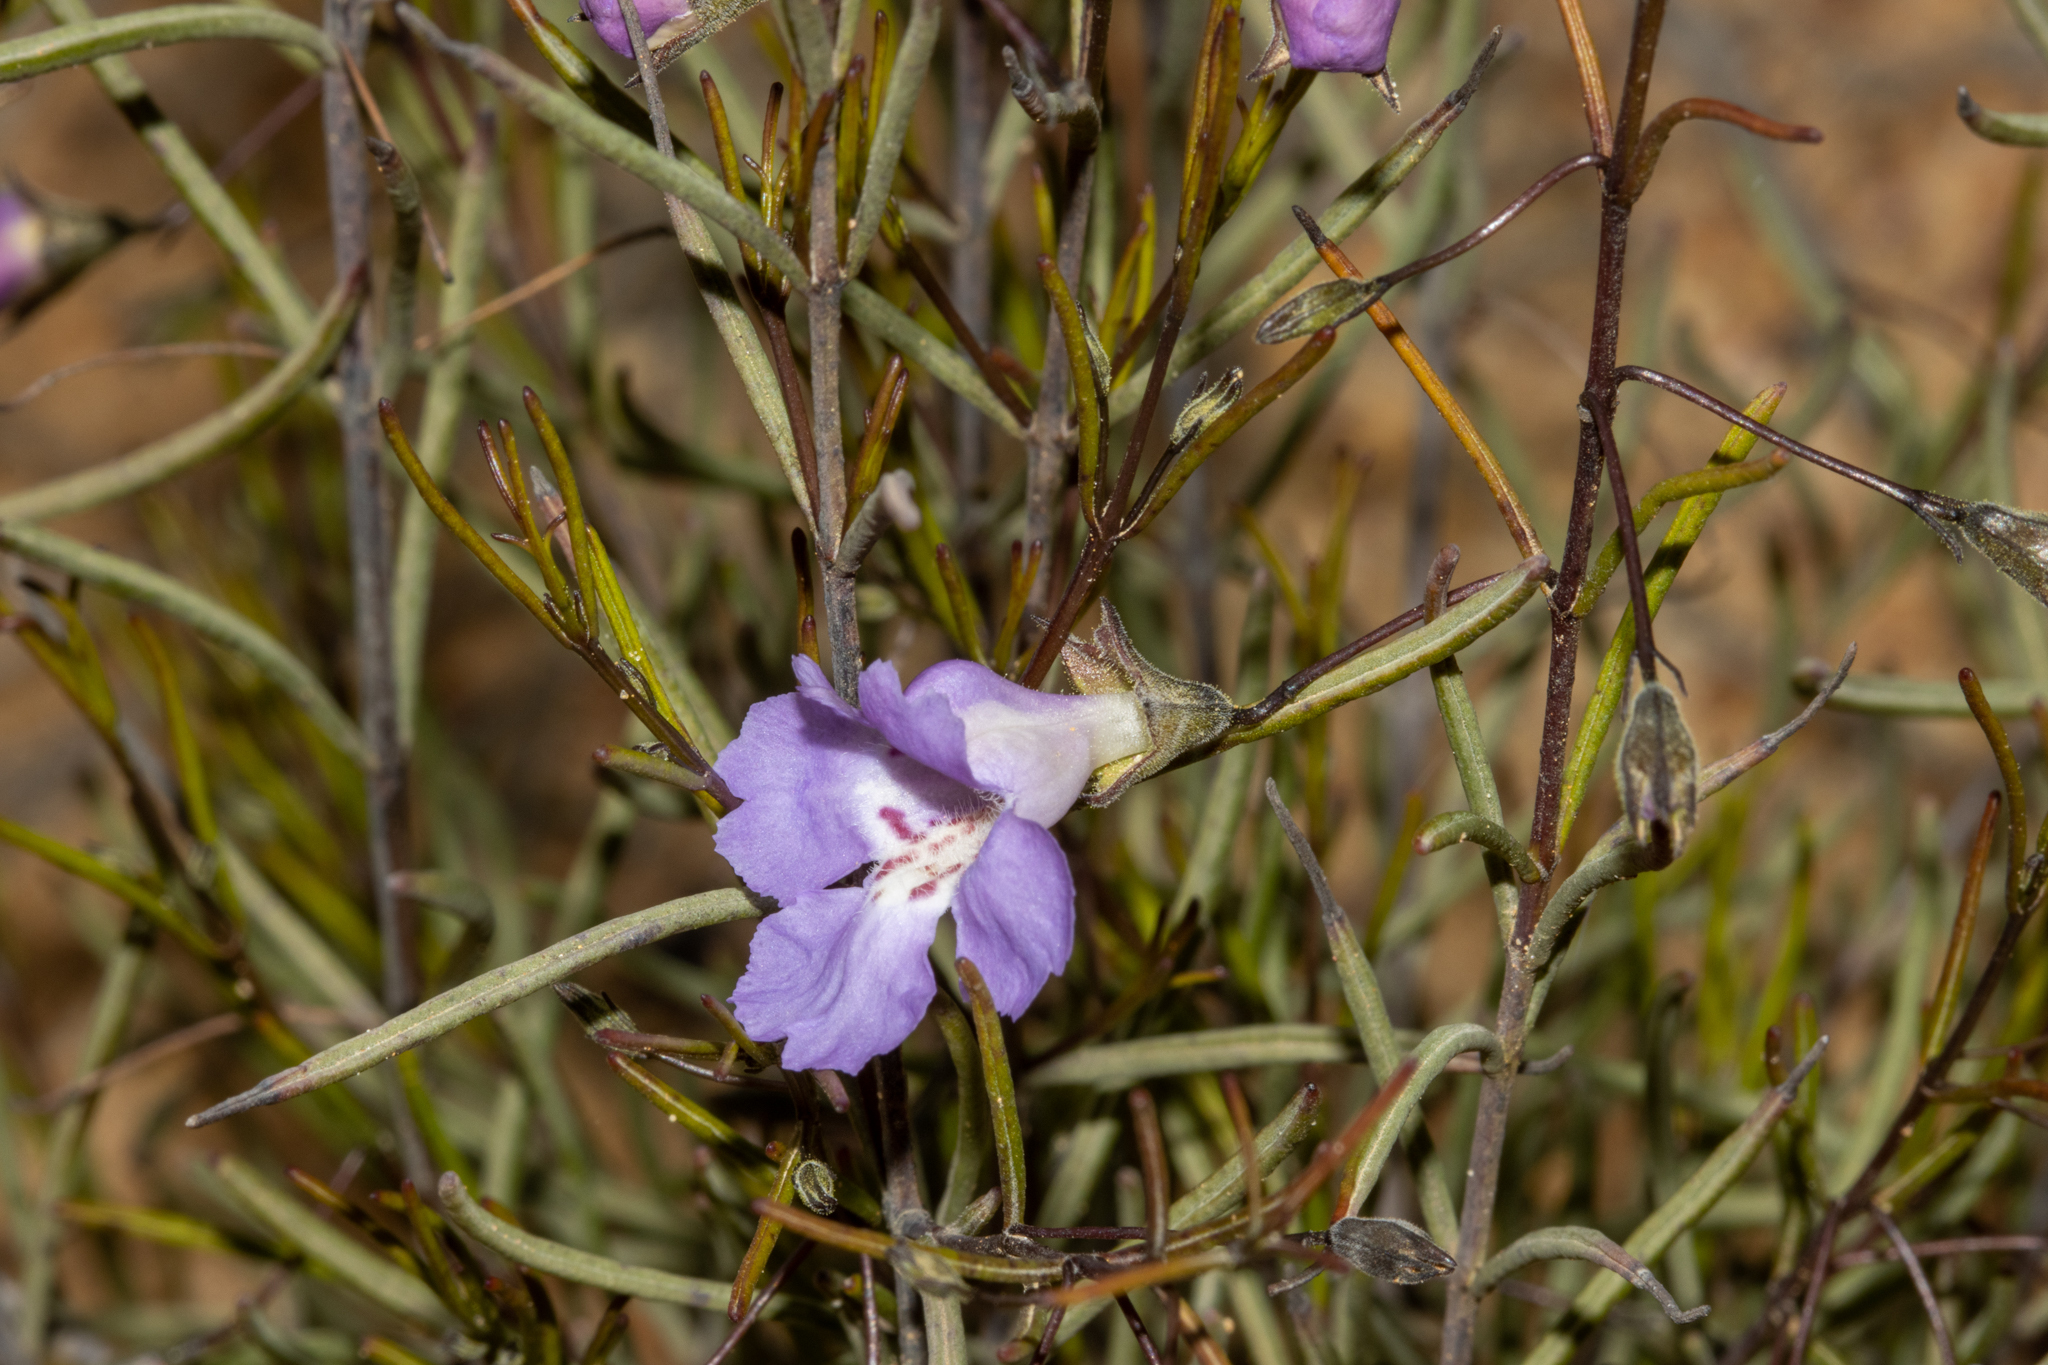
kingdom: Plantae
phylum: Tracheophyta
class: Magnoliopsida
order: Lamiales
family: Lamiaceae
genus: Hemigenia
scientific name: Hemigenia westringioides
